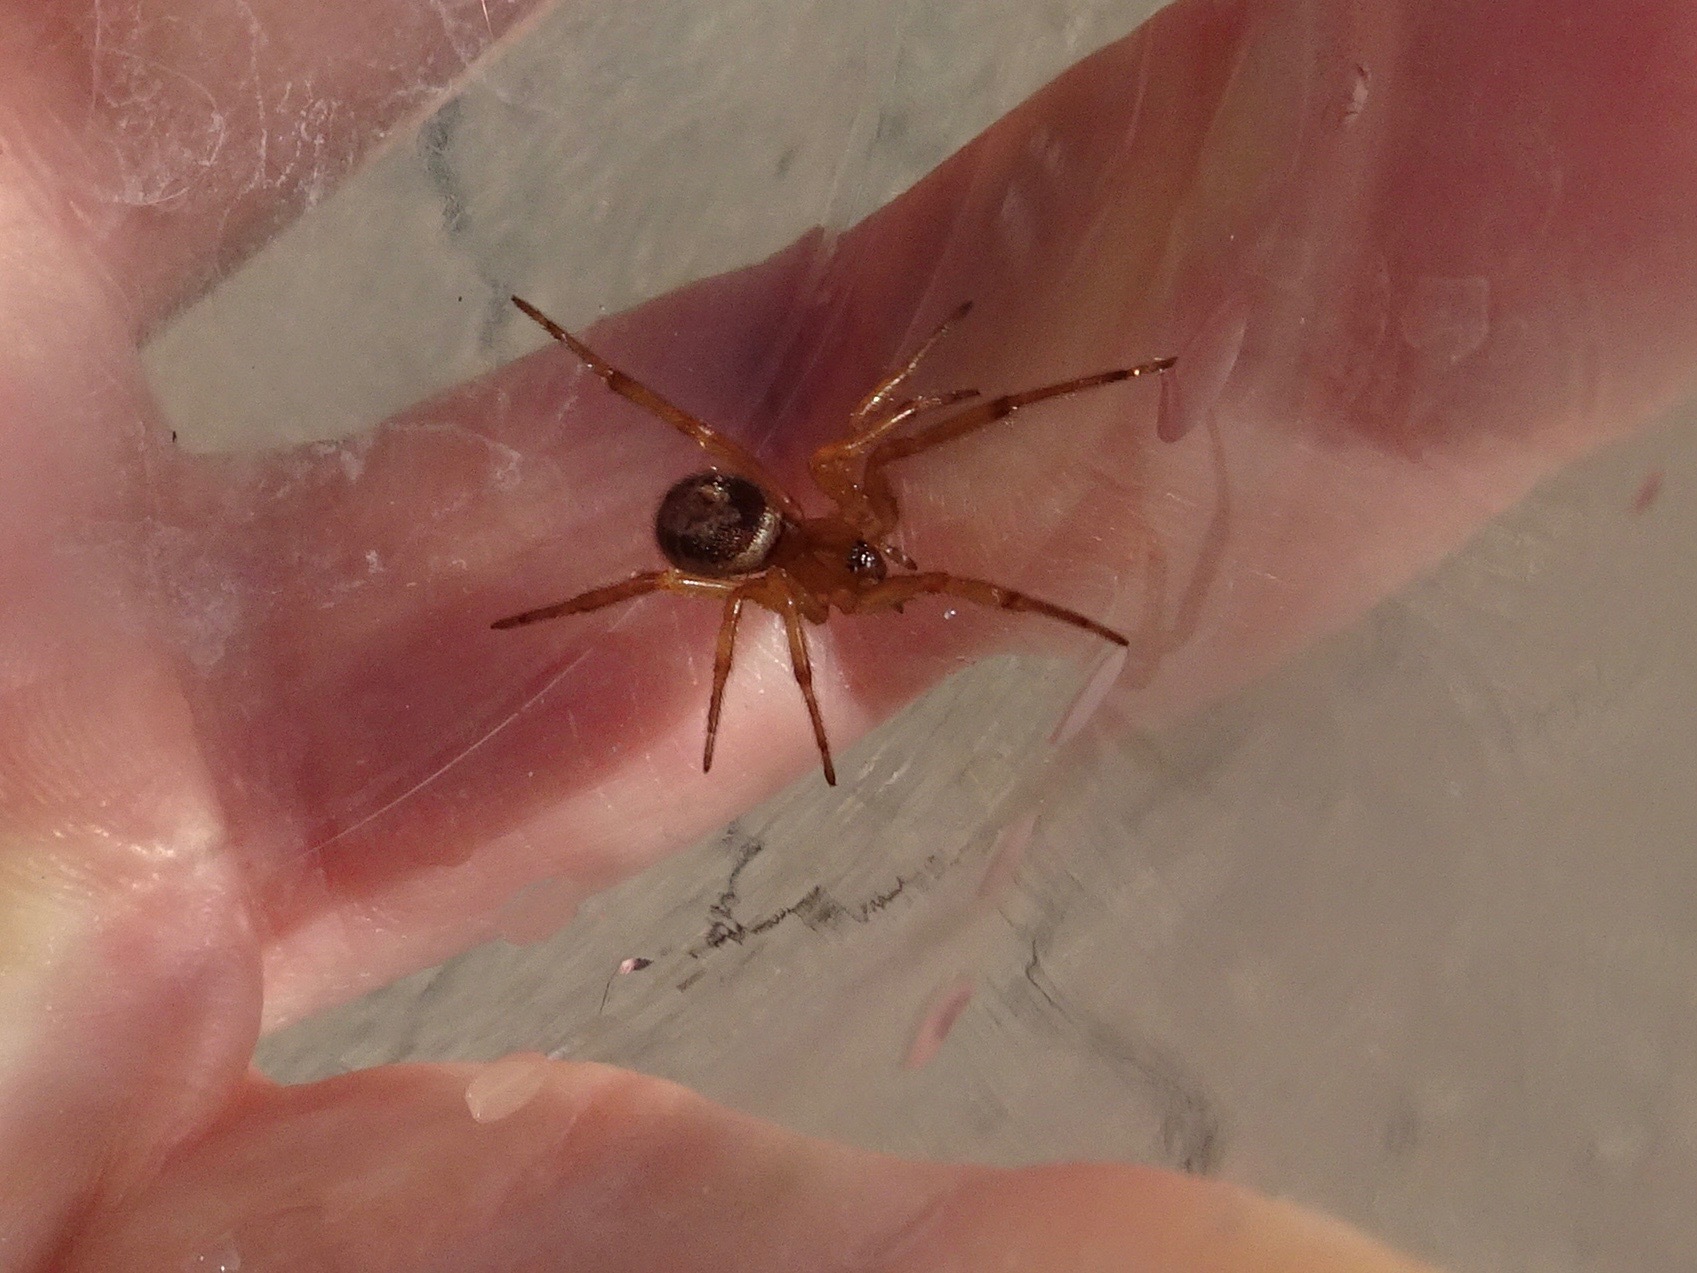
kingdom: Animalia
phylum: Arthropoda
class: Arachnida
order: Araneae
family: Theridiidae
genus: Steatoda
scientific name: Steatoda nobilis
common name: Cobweb weaver
